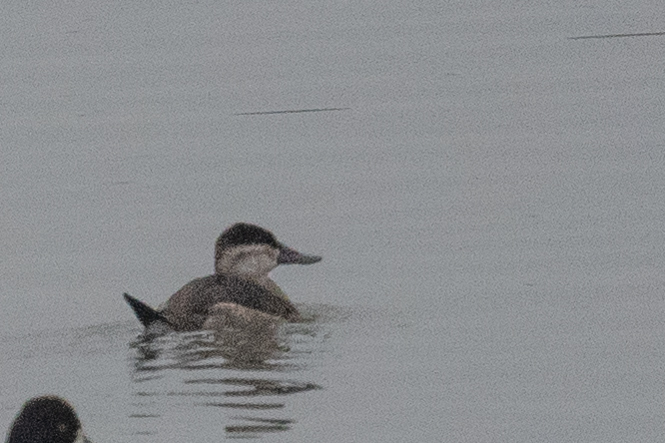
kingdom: Animalia
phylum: Chordata
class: Aves
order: Anseriformes
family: Anatidae
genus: Oxyura
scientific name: Oxyura jamaicensis
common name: Ruddy duck
